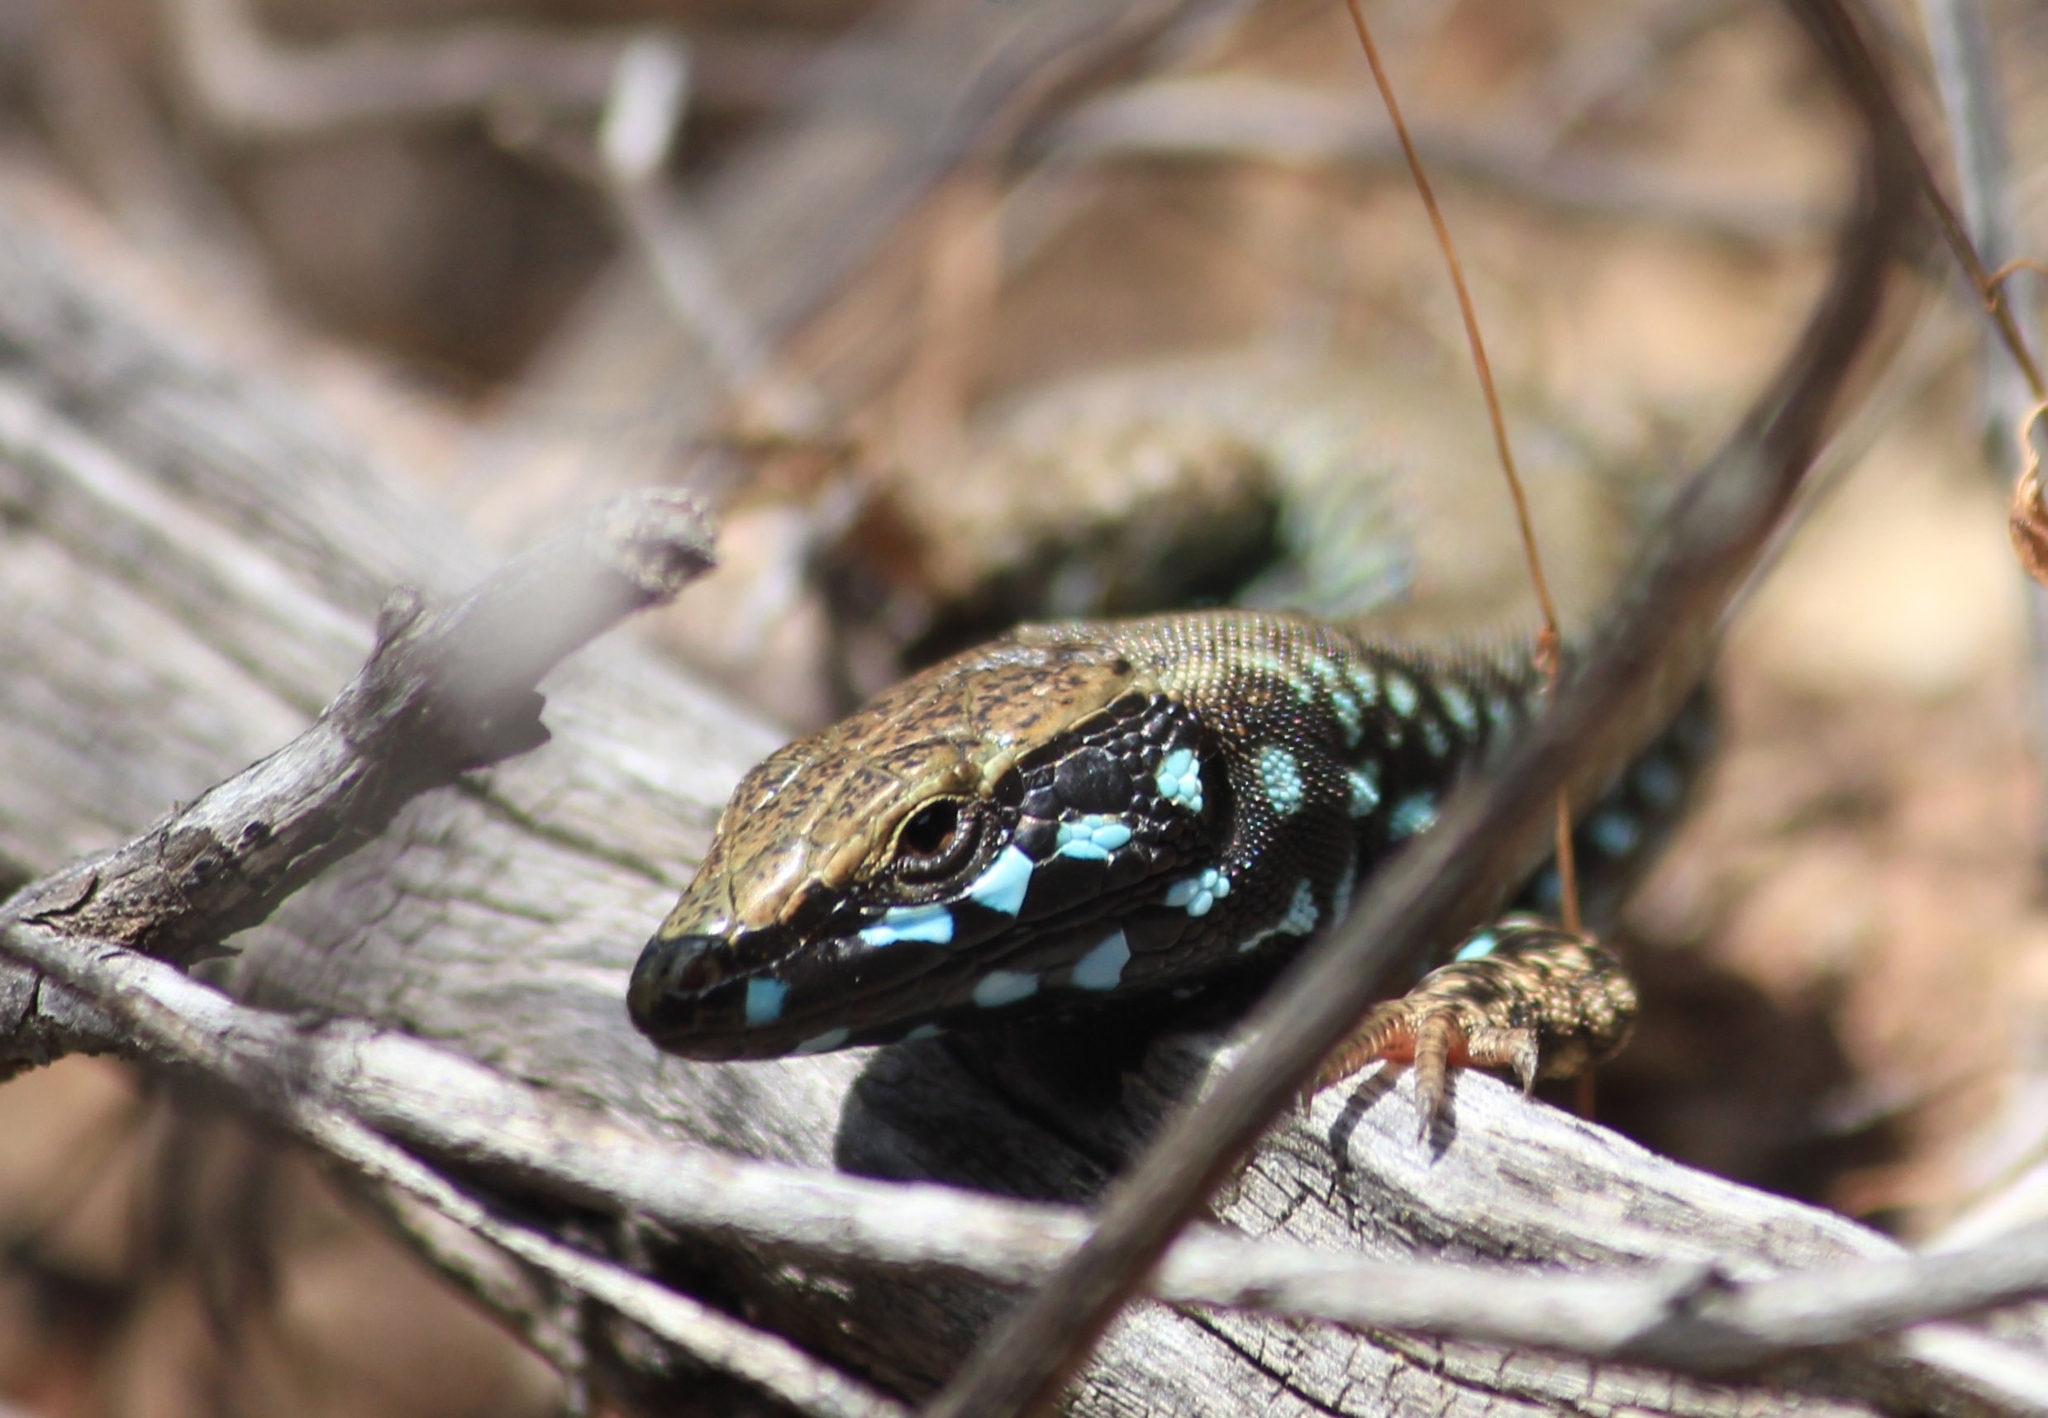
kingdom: Animalia
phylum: Chordata
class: Squamata
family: Lacertidae
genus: Podarcis
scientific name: Podarcis milensis
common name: Milos wall lizard
